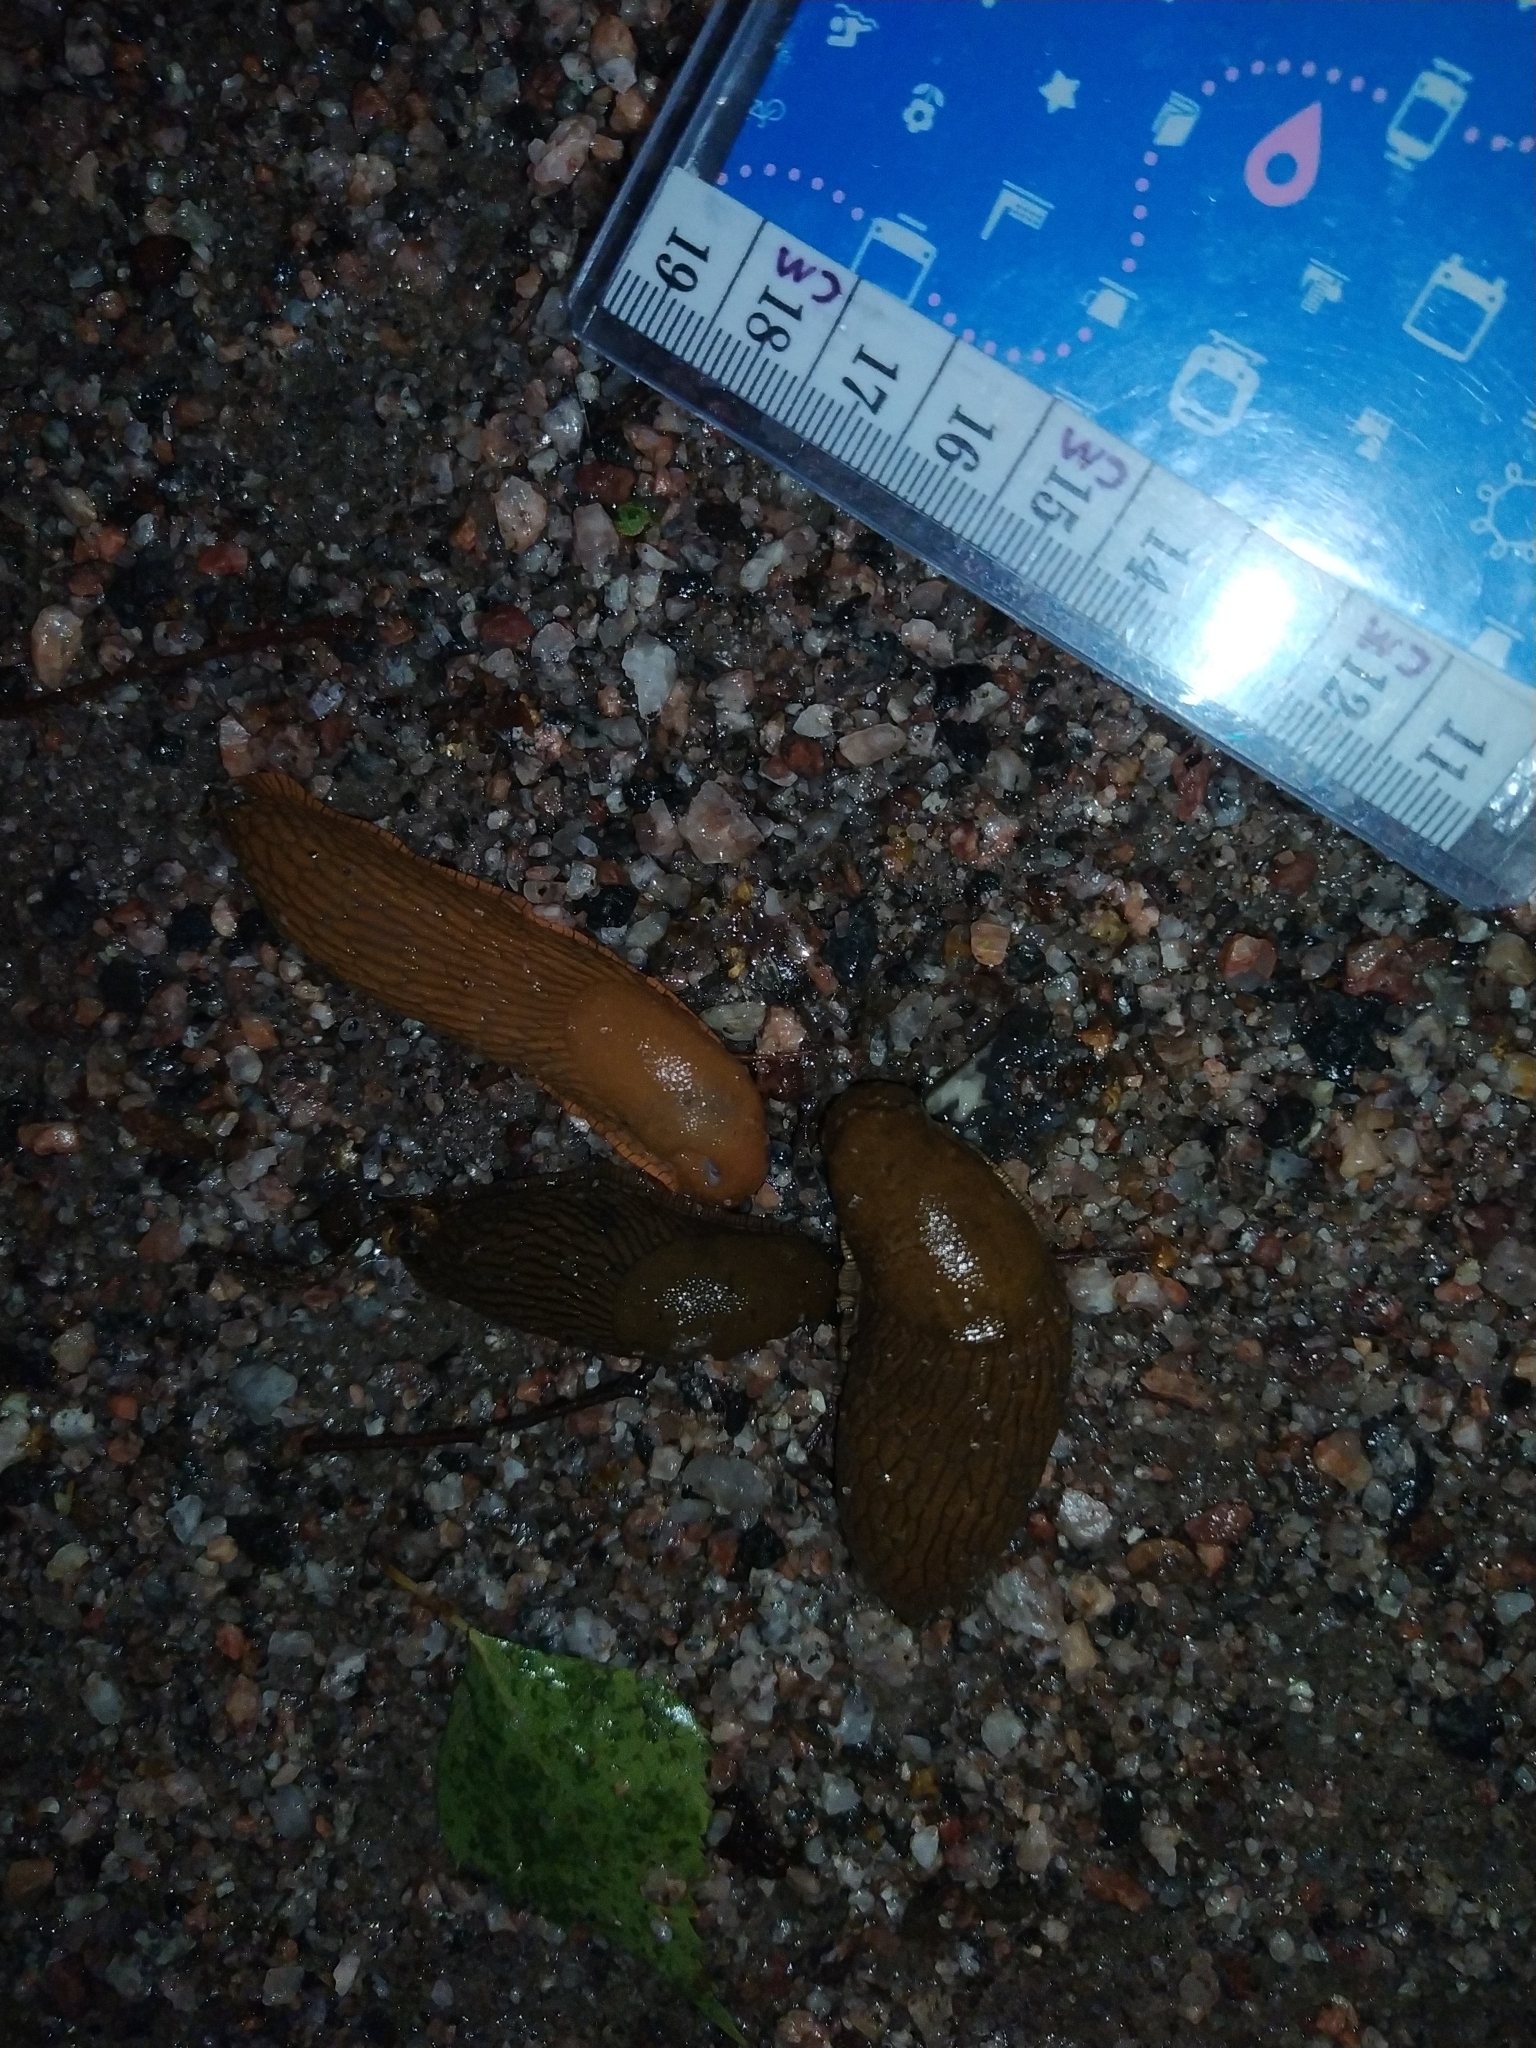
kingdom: Animalia
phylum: Mollusca
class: Gastropoda
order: Stylommatophora
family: Arionidae
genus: Arion
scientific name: Arion vulgaris
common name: Lusitanian slug
